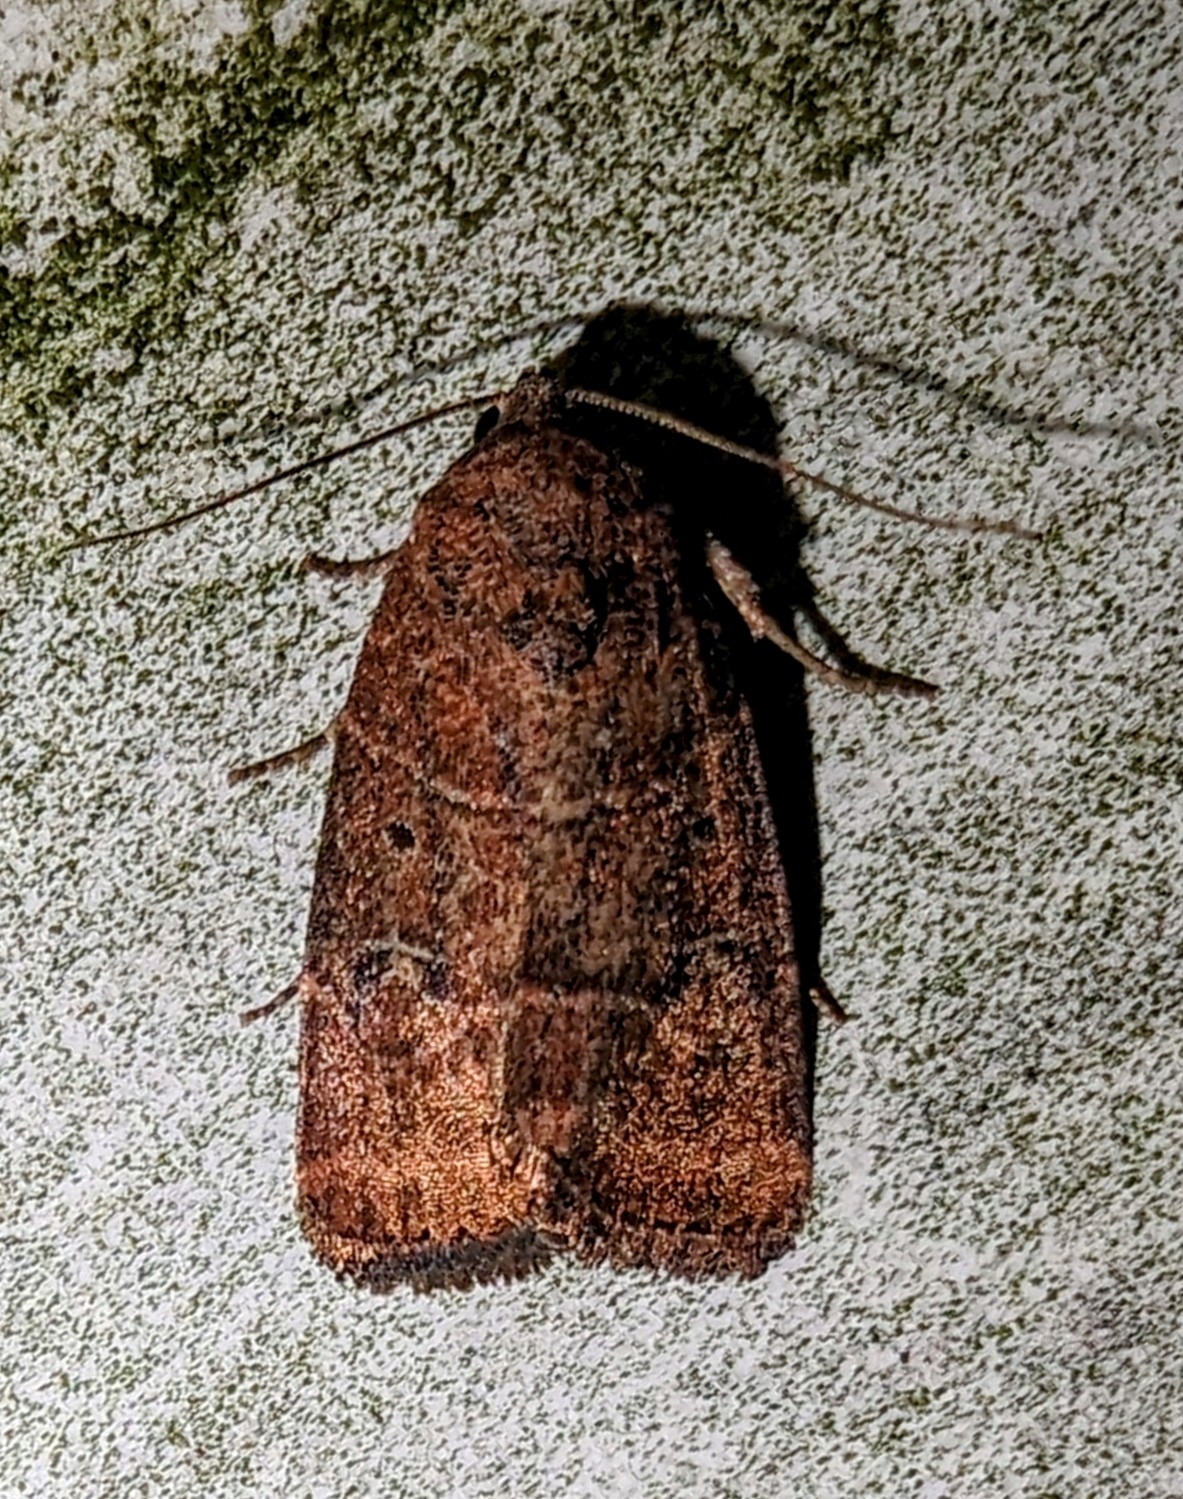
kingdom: Animalia
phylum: Arthropoda
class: Insecta
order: Lepidoptera
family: Noctuidae
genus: Elaphria
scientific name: Elaphria grata
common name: Grateful midget moth
